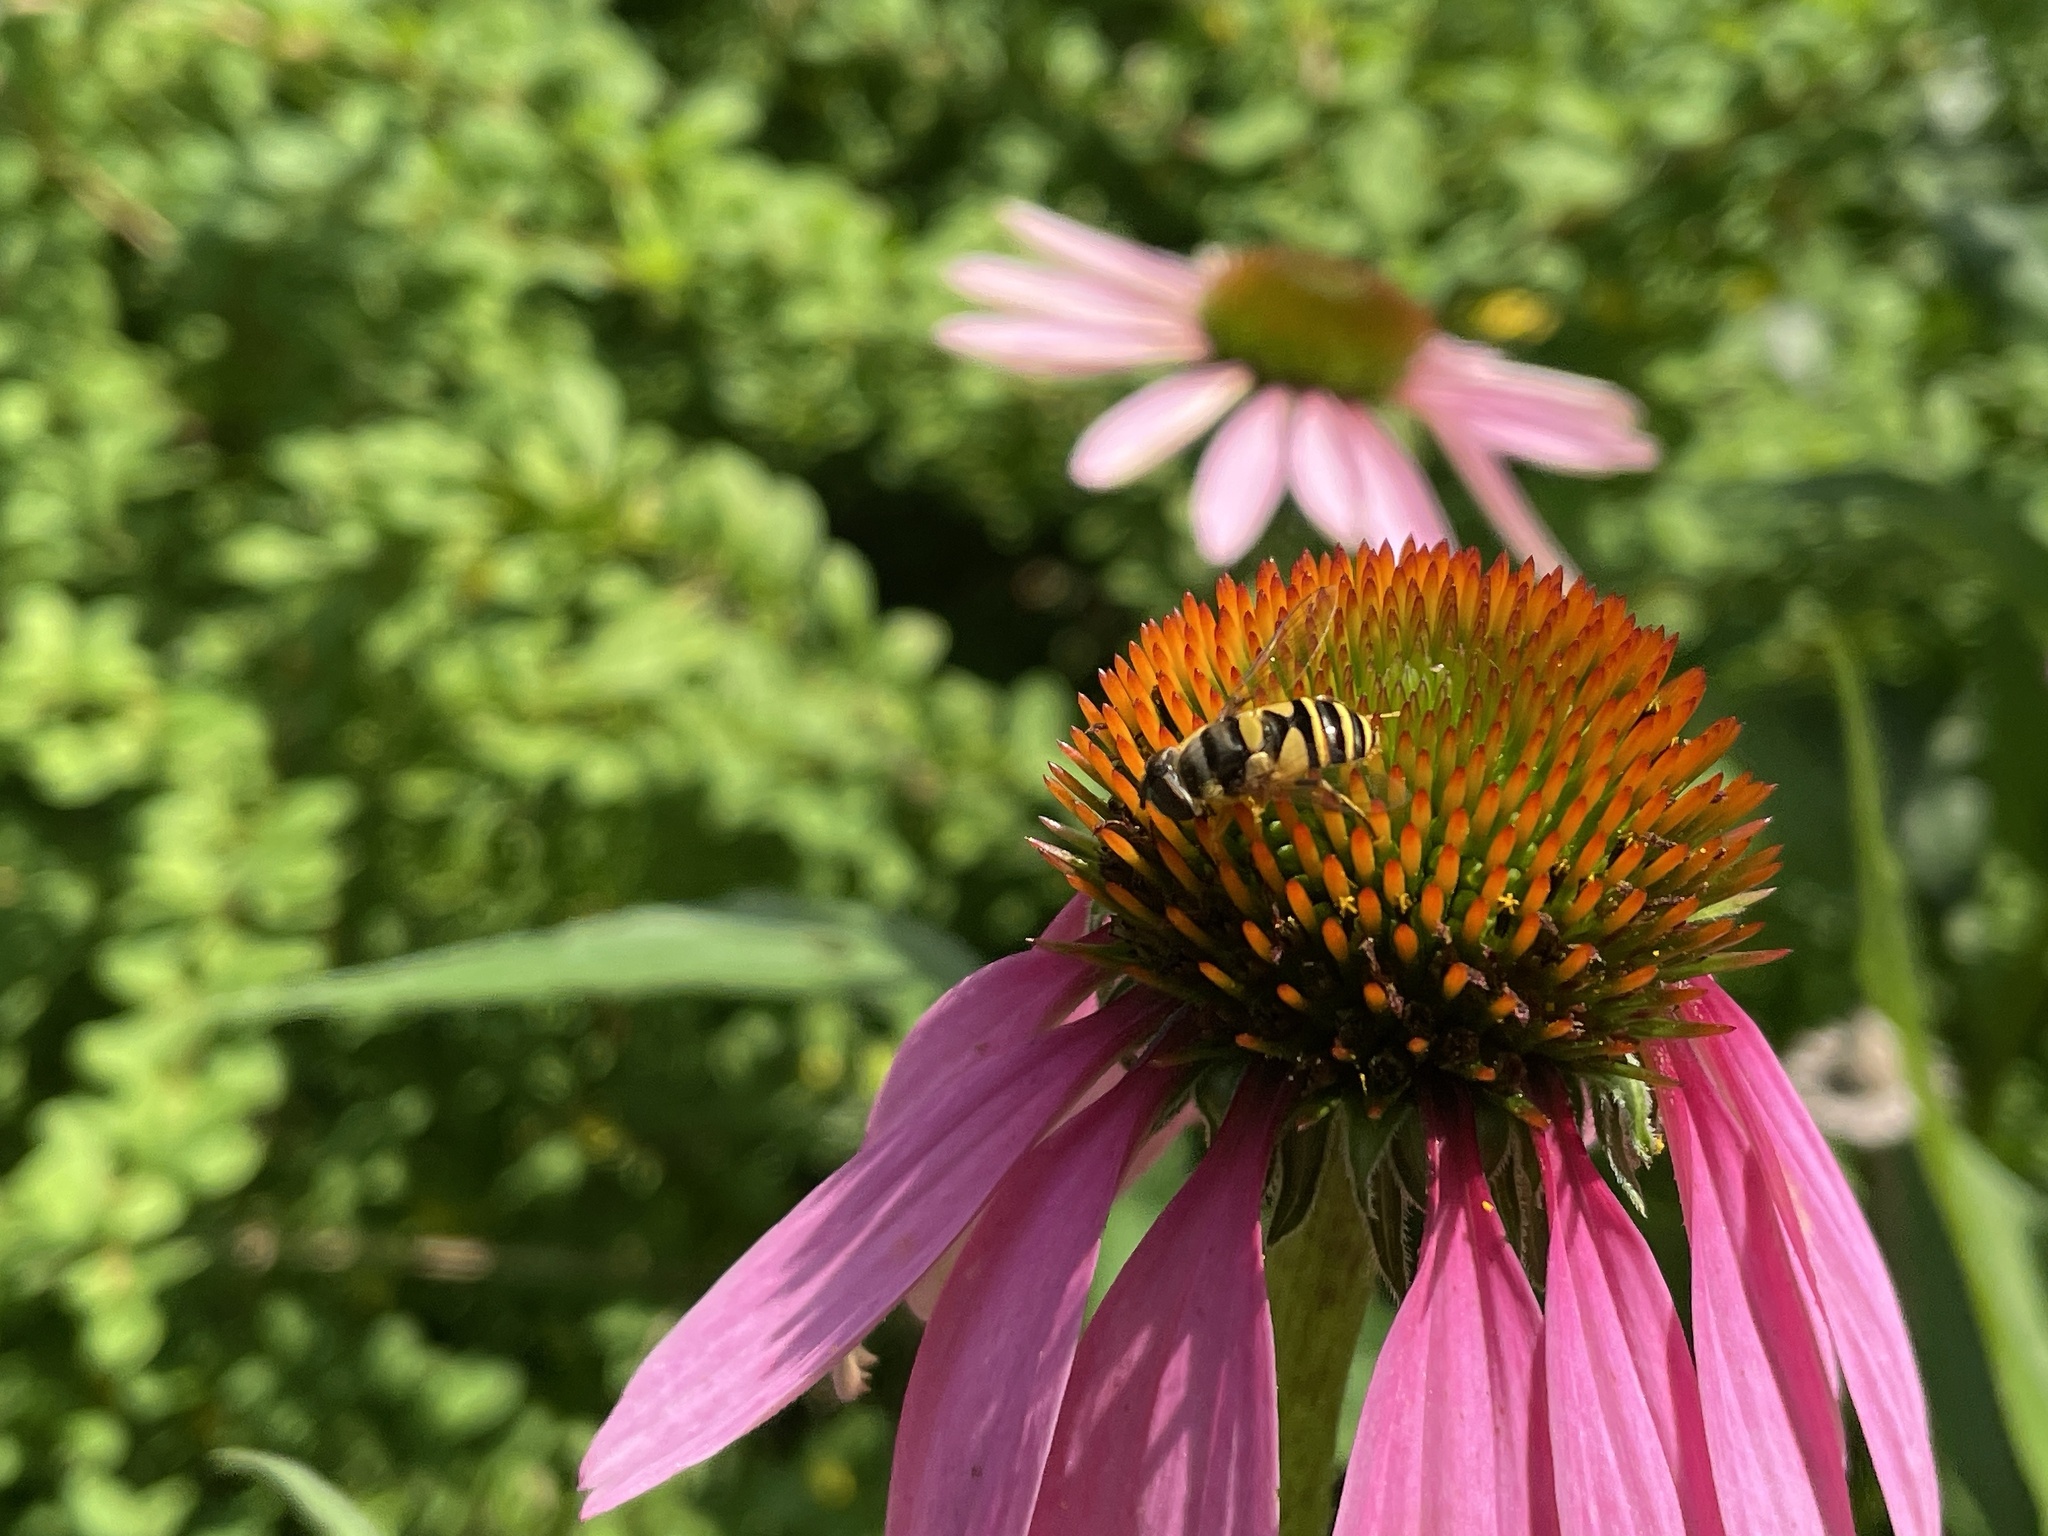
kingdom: Animalia
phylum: Arthropoda
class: Insecta
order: Diptera
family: Syrphidae
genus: Eristalis
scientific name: Eristalis transversa
